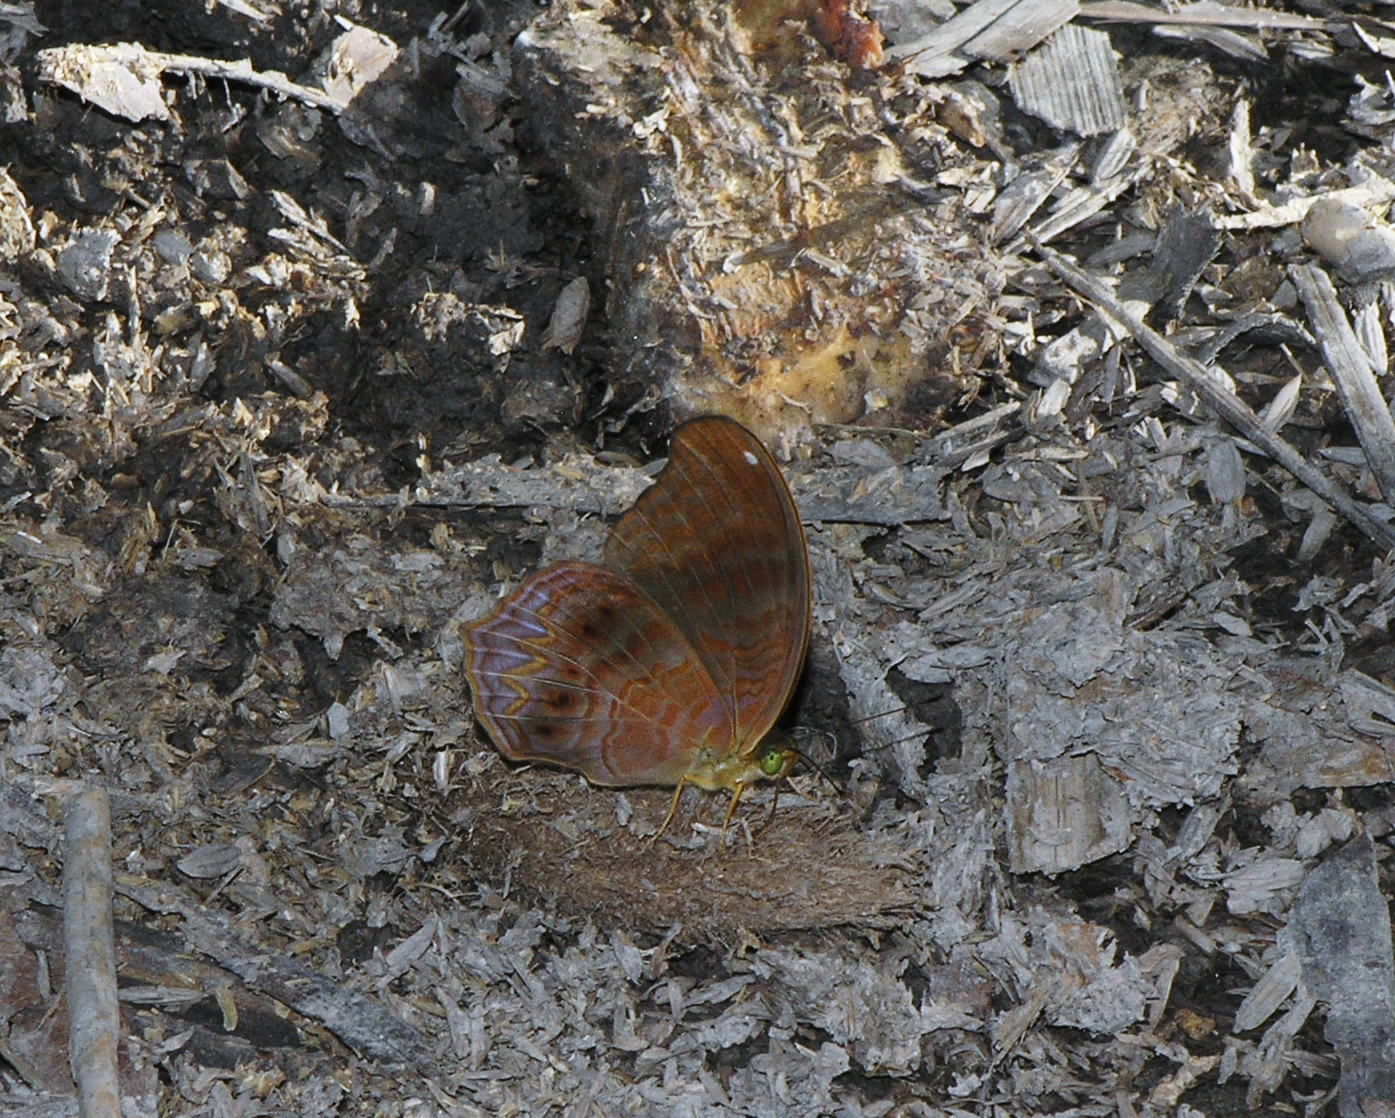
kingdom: Animalia
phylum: Arthropoda
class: Insecta
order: Lepidoptera
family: Nymphalidae
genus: Terinos
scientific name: Terinos terpander
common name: Royal assyrian
